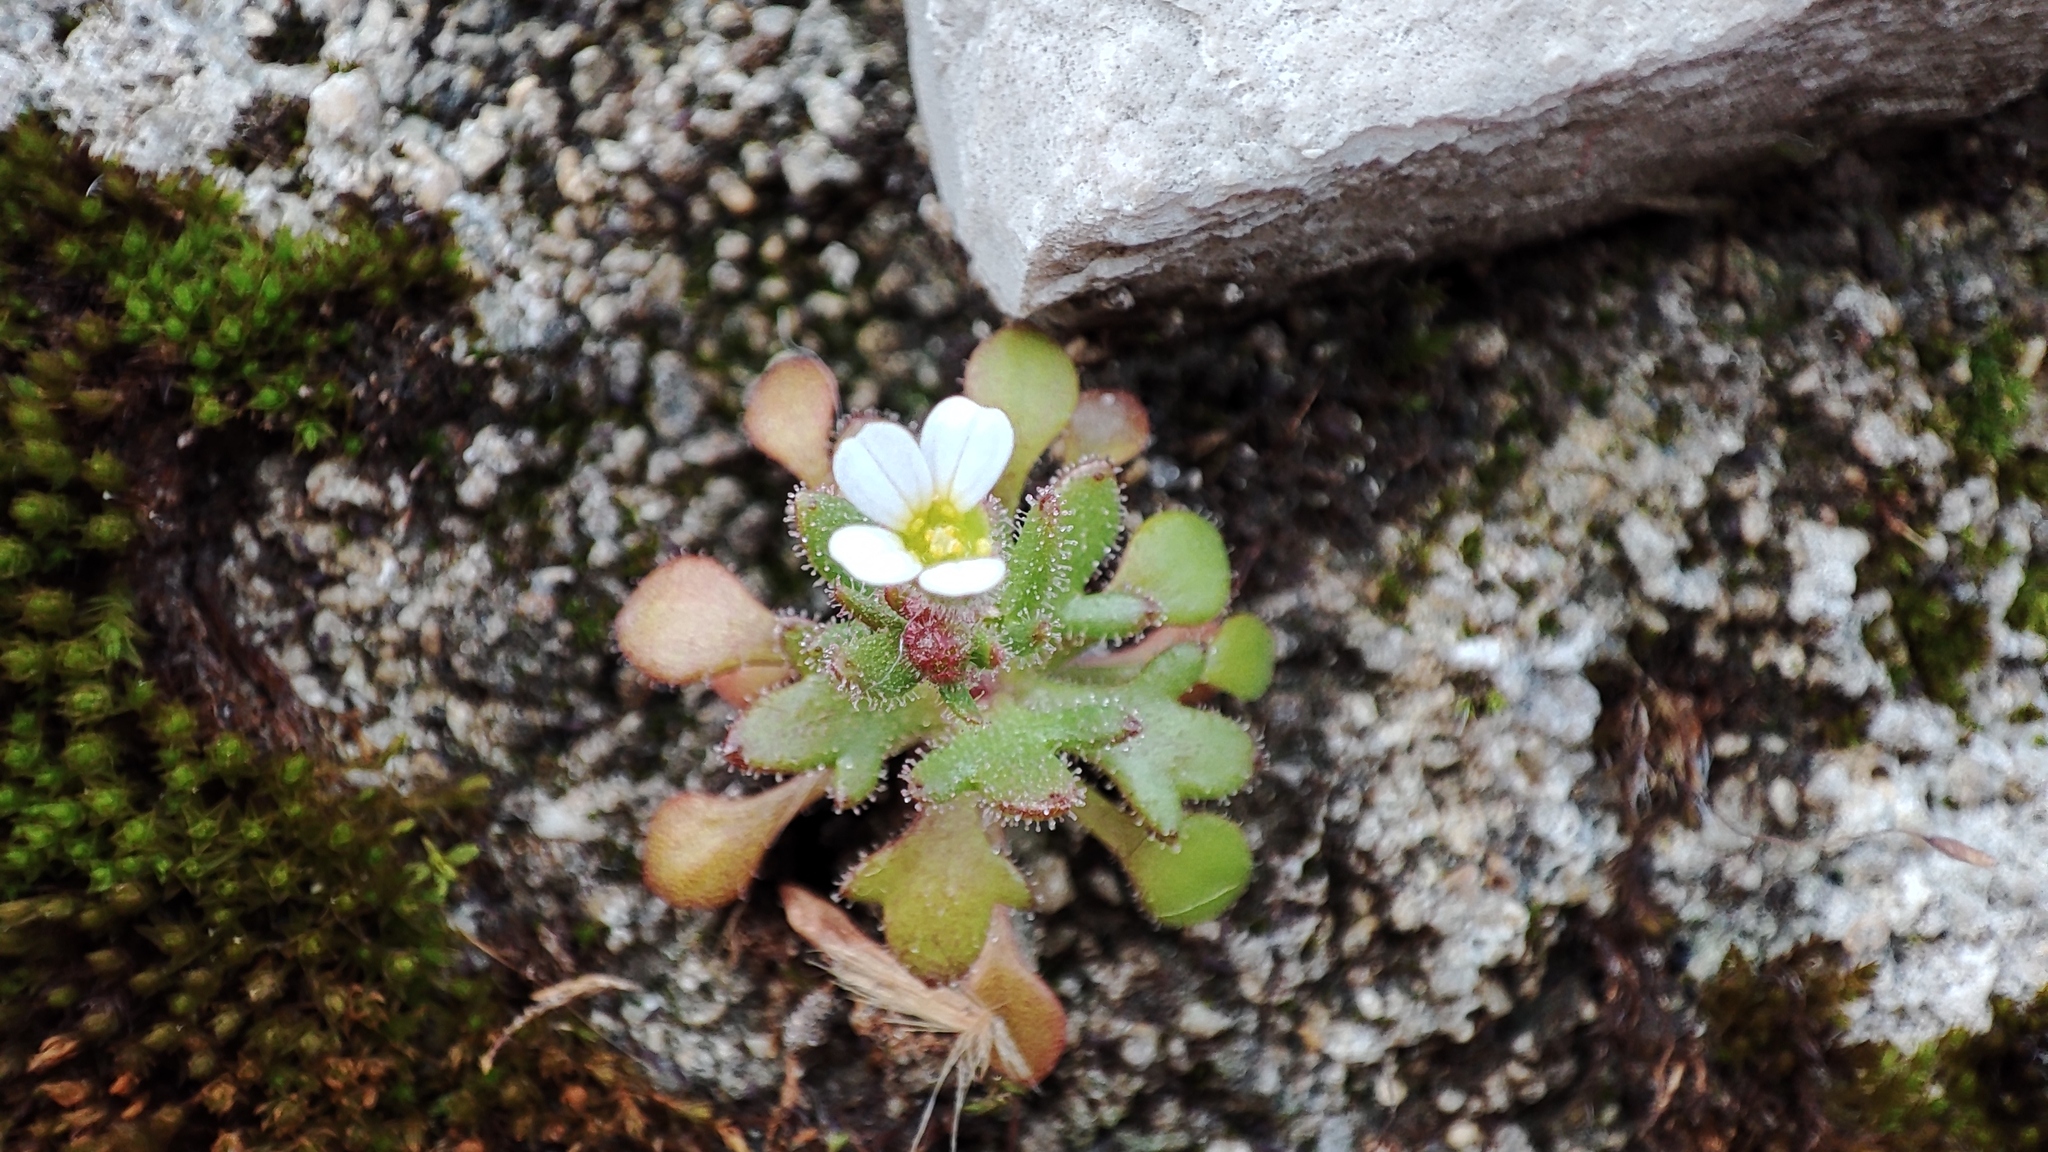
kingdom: Plantae
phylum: Tracheophyta
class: Magnoliopsida
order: Saxifragales
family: Saxifragaceae
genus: Saxifraga
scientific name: Saxifraga tridactylites
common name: Rue-leaved saxifrage
